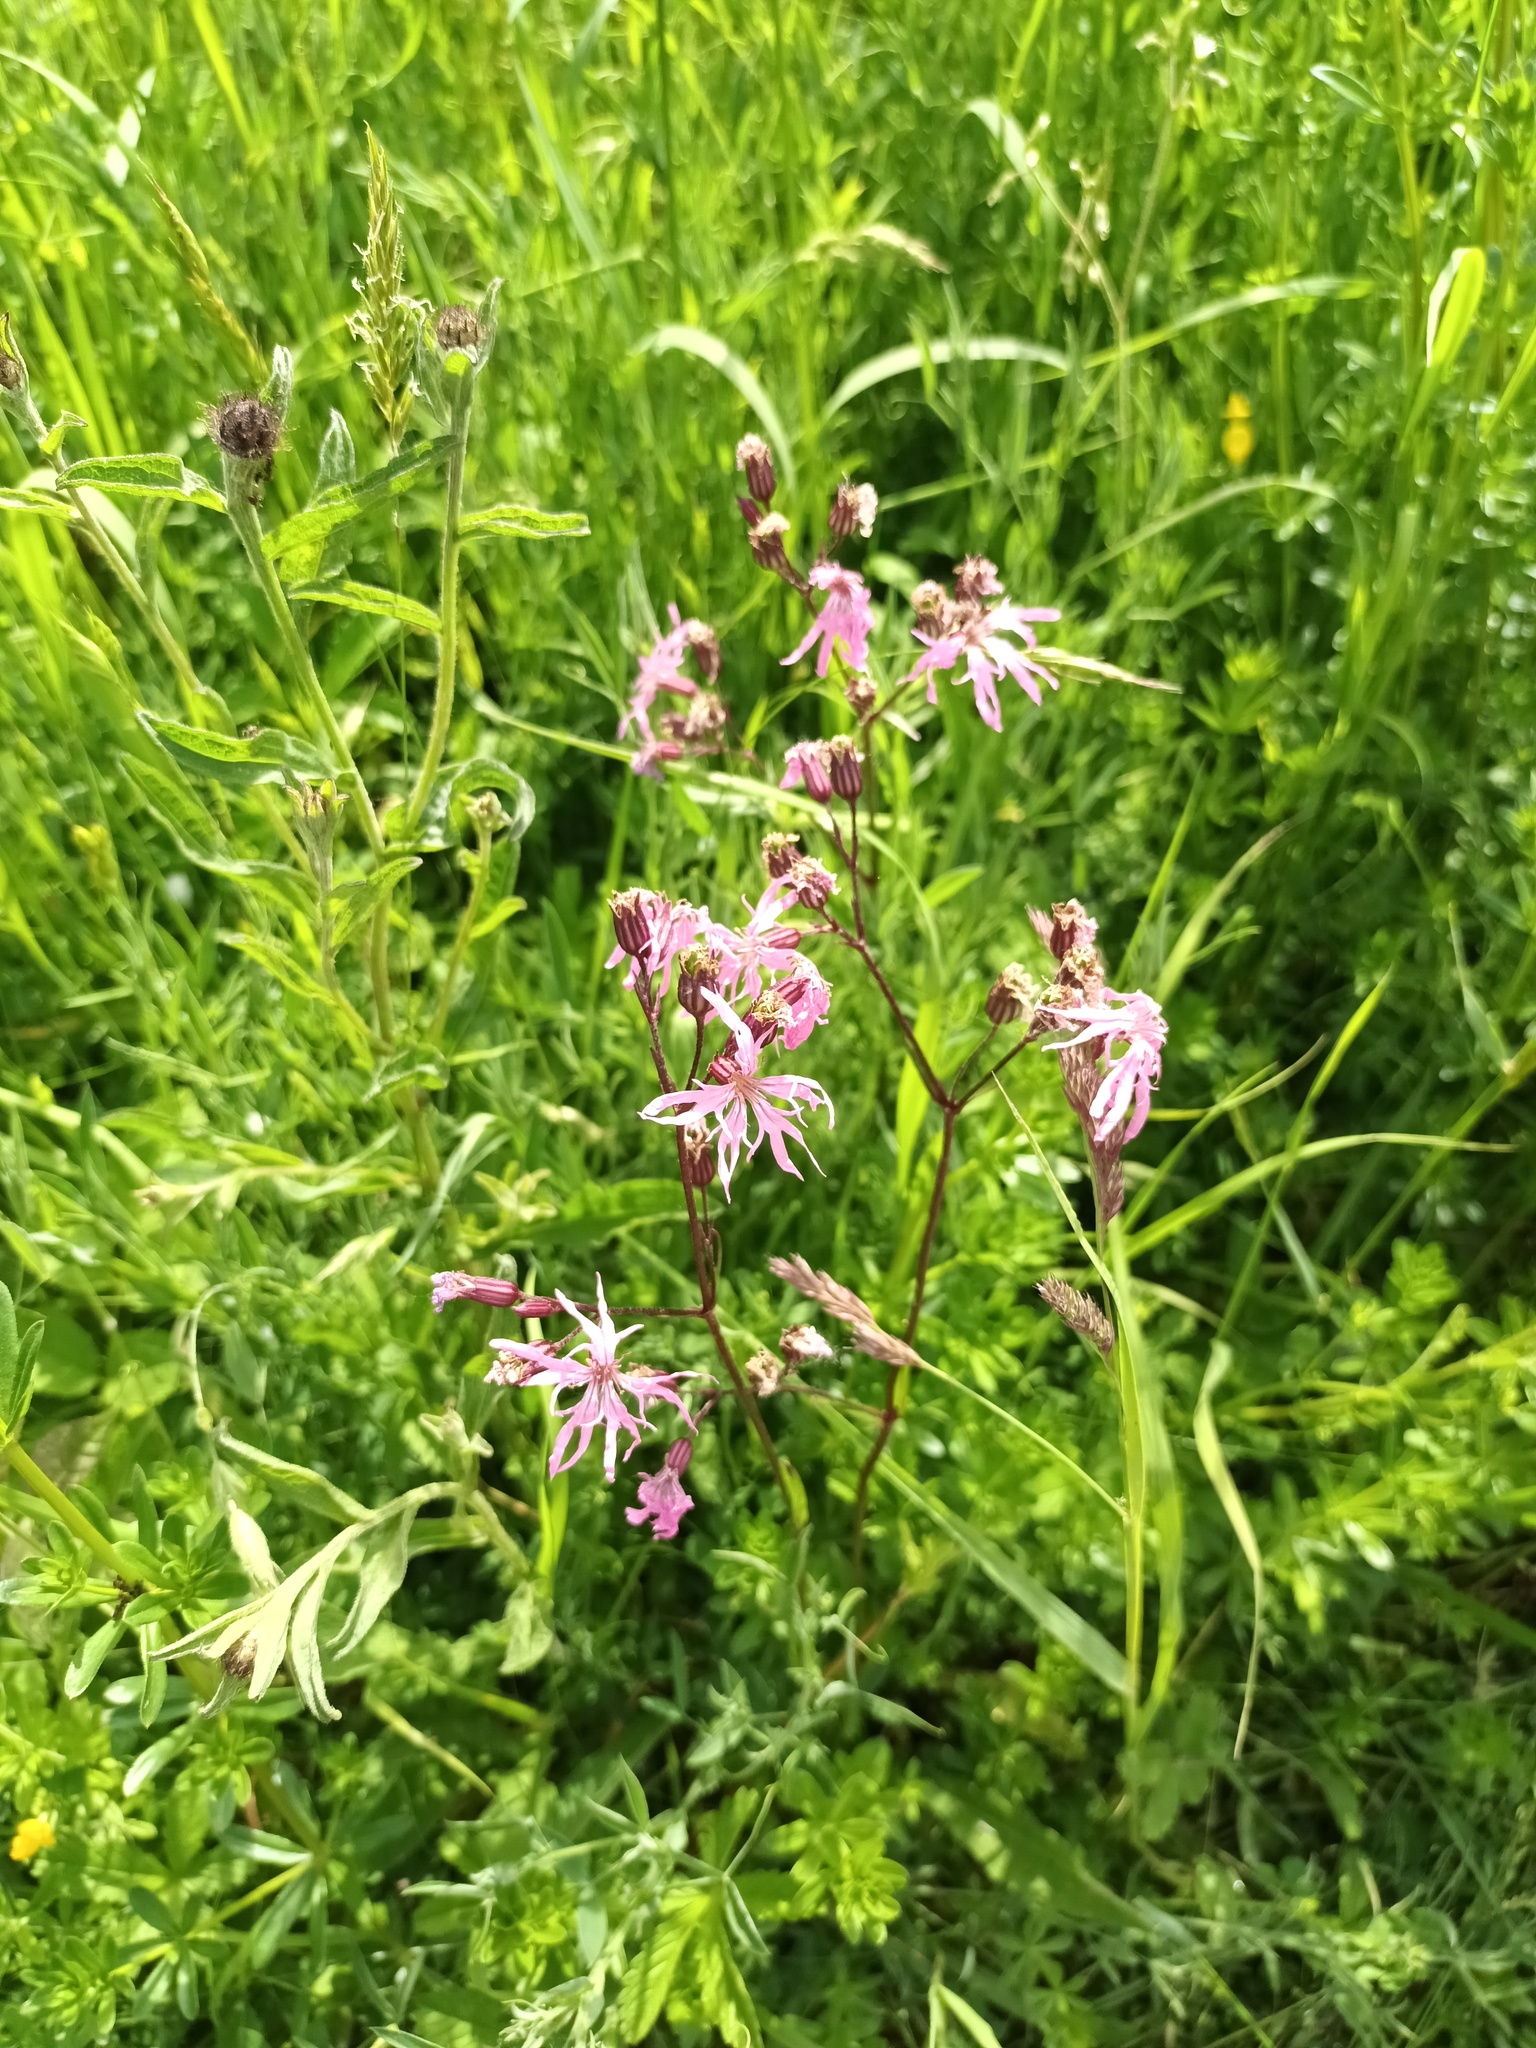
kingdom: Plantae
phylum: Tracheophyta
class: Magnoliopsida
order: Caryophyllales
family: Caryophyllaceae
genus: Silene
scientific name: Silene flos-cuculi
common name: Ragged-robin
